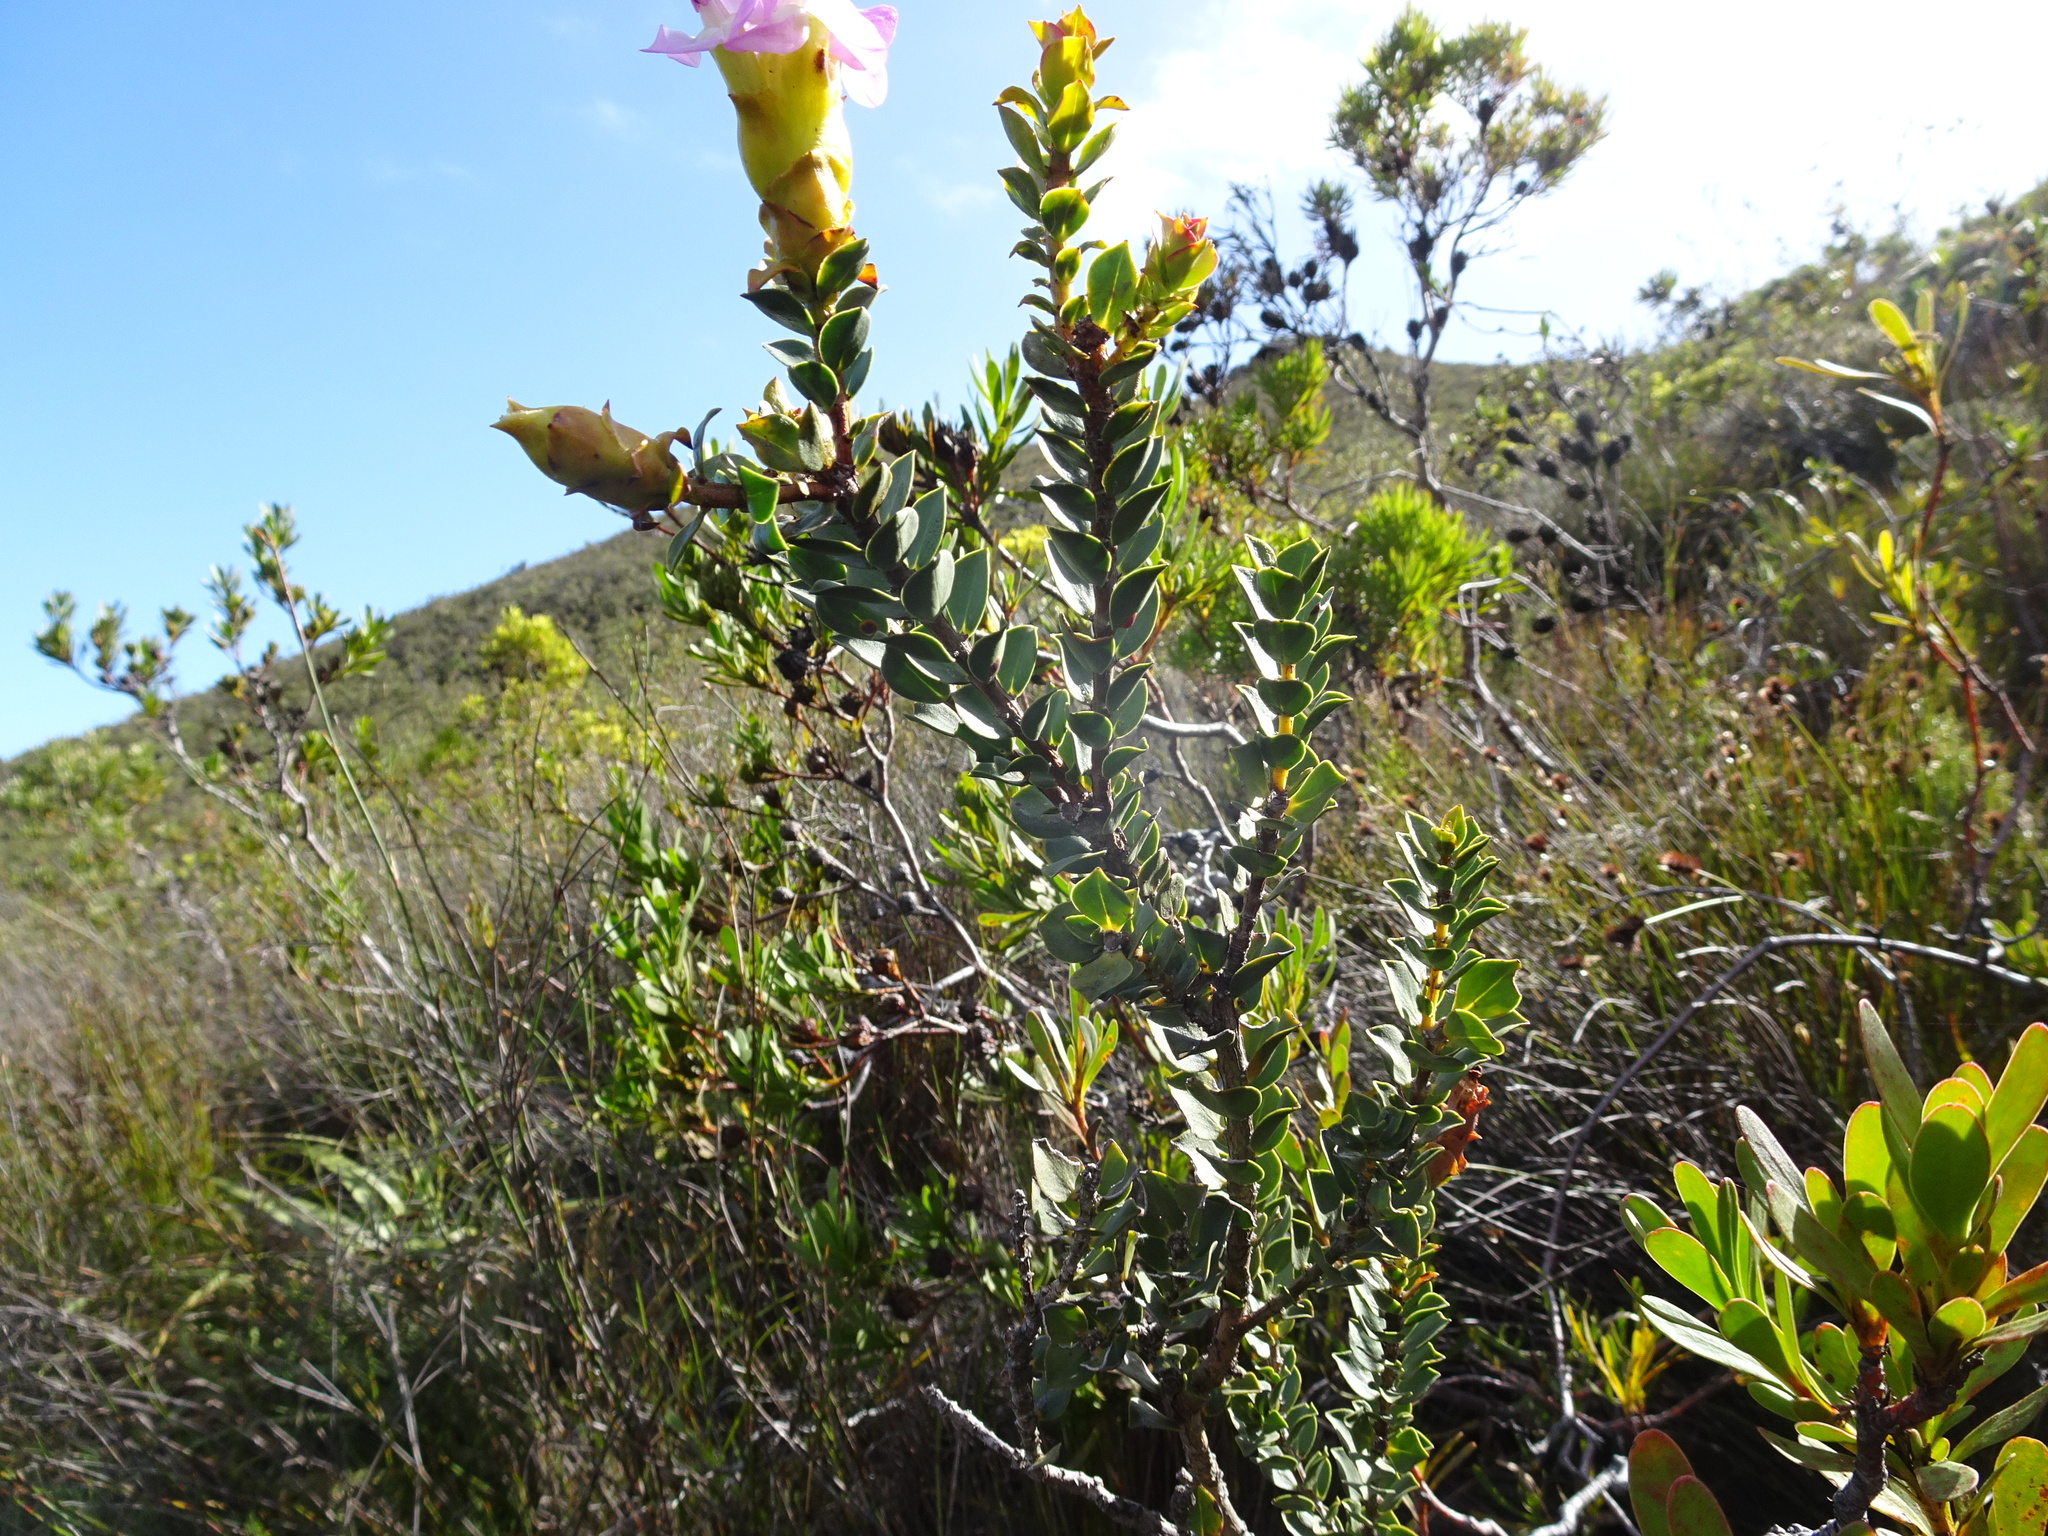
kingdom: Plantae
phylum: Tracheophyta
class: Magnoliopsida
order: Myrtales
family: Penaeaceae
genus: Saltera
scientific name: Saltera sarcocolla
